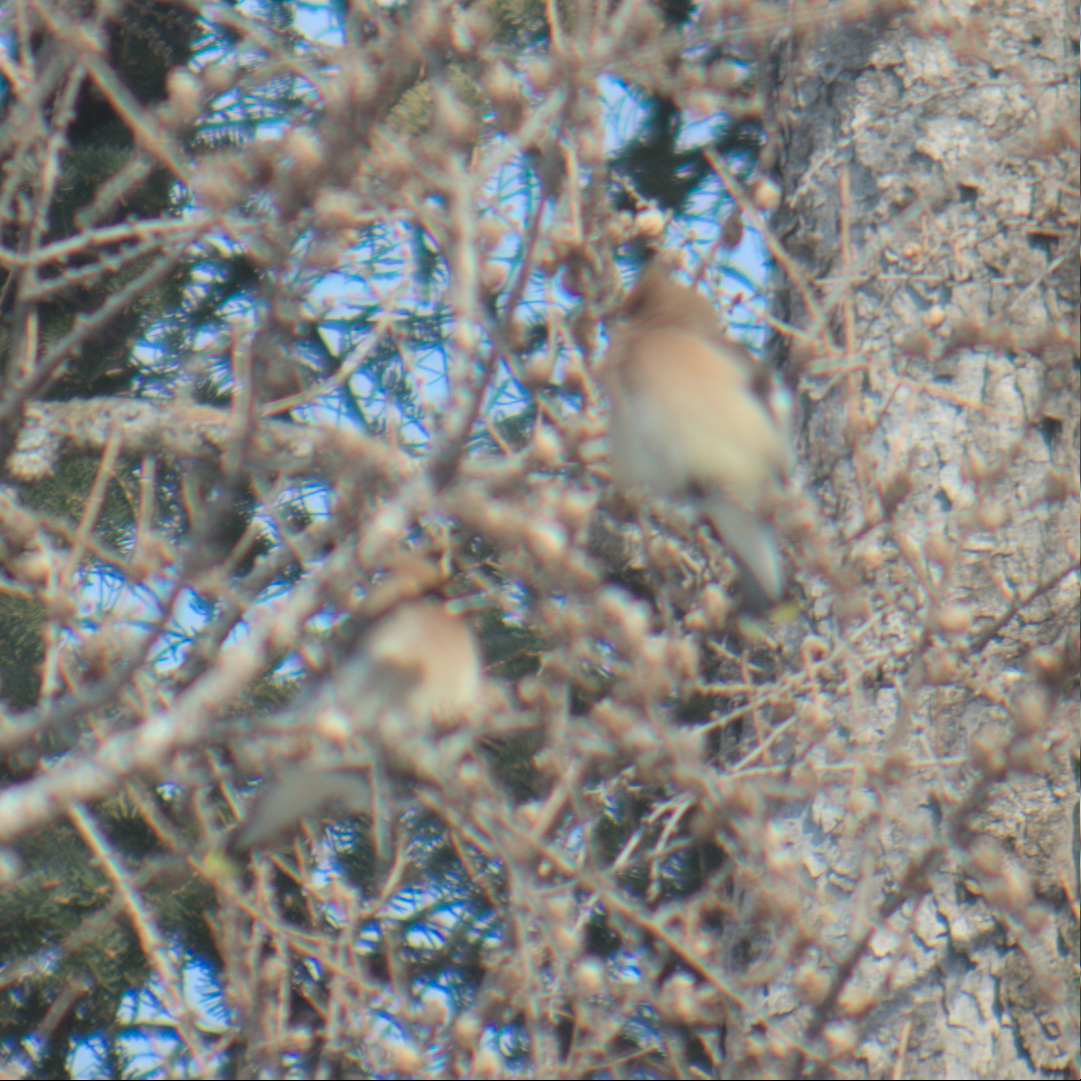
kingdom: Animalia
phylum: Chordata
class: Aves
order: Passeriformes
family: Bombycillidae
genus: Bombycilla
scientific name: Bombycilla cedrorum
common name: Cedar waxwing
